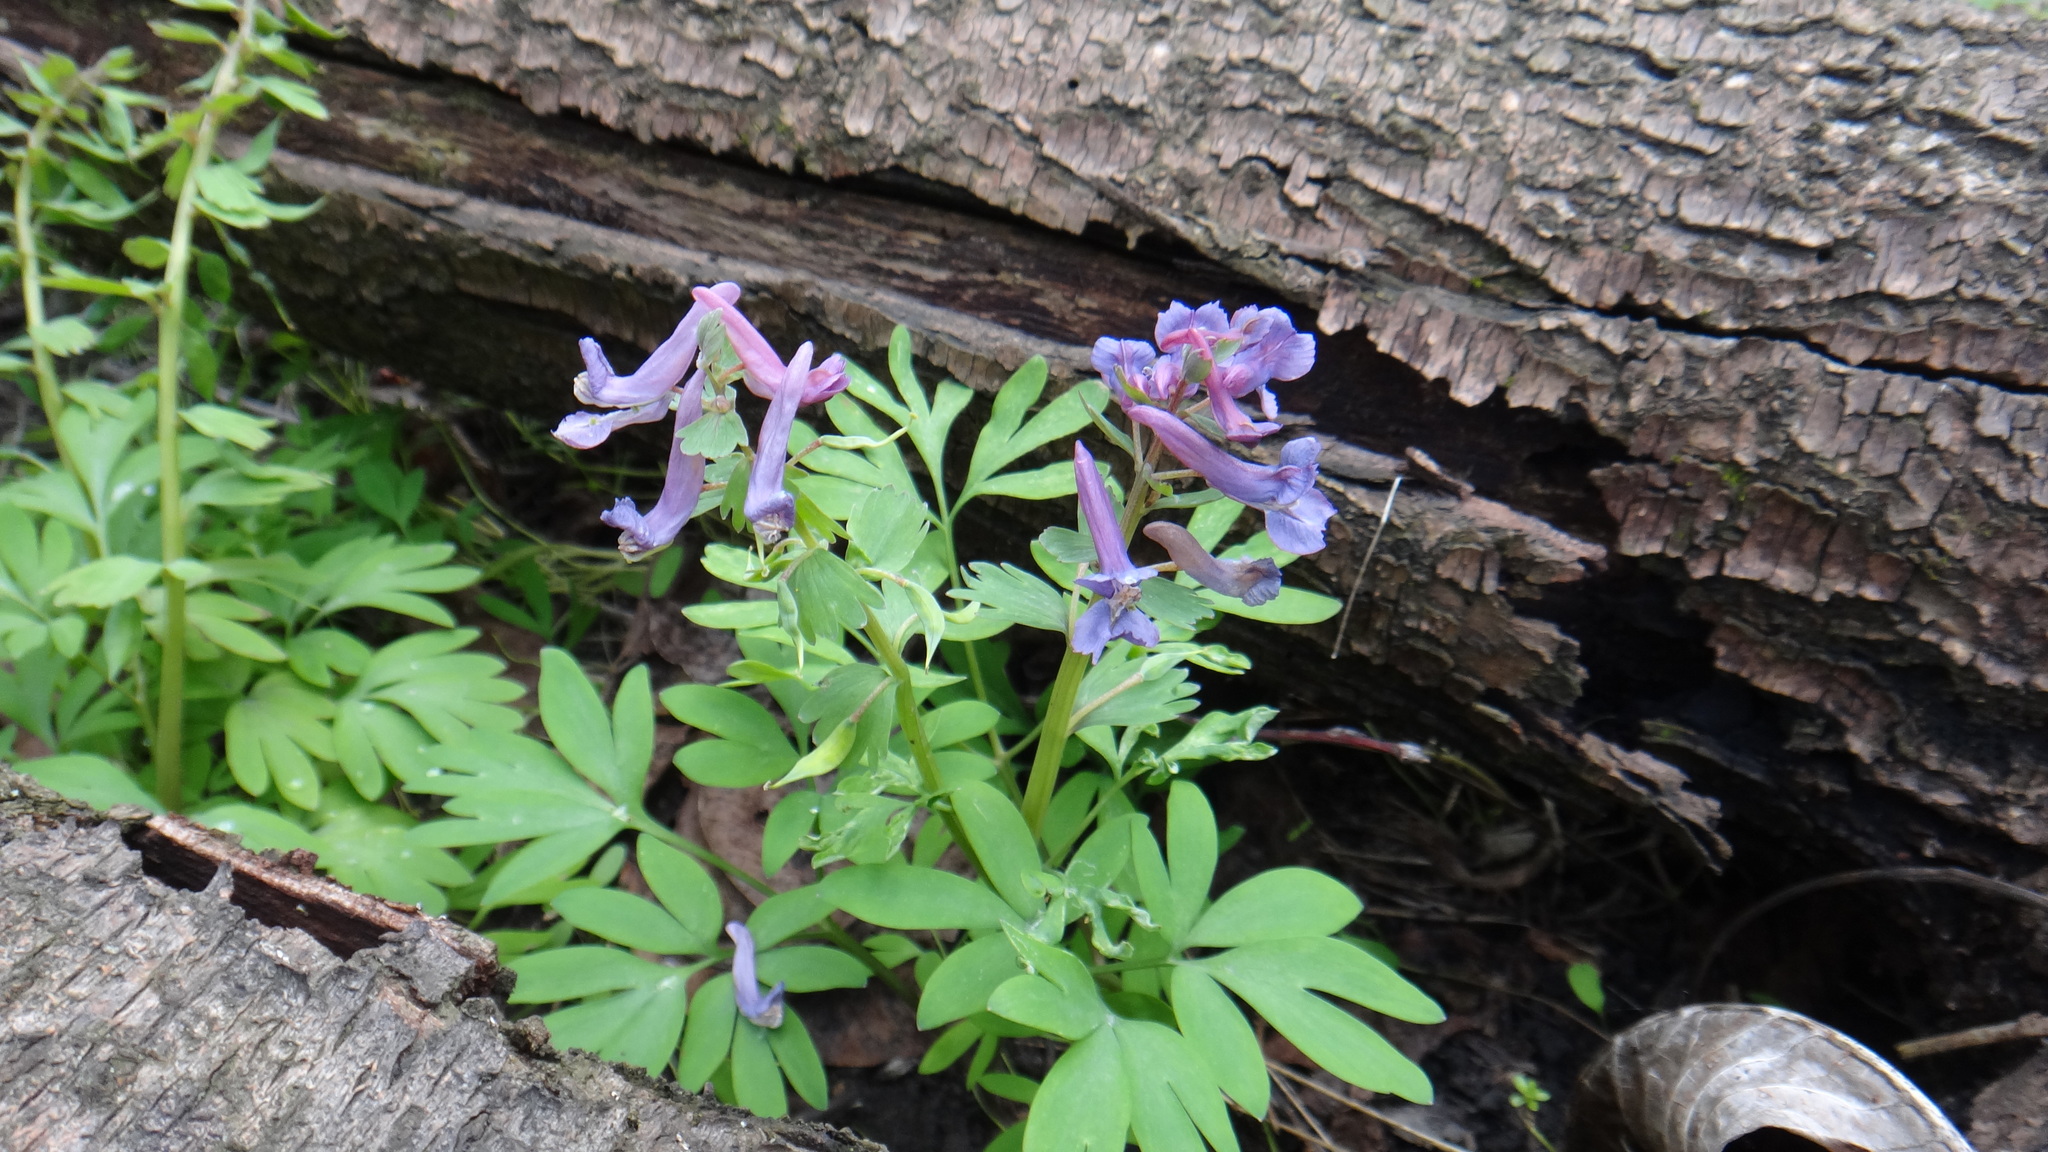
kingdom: Plantae
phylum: Tracheophyta
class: Magnoliopsida
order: Ranunculales
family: Papaveraceae
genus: Corydalis
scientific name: Corydalis solida
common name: Bird-in-a-bush
